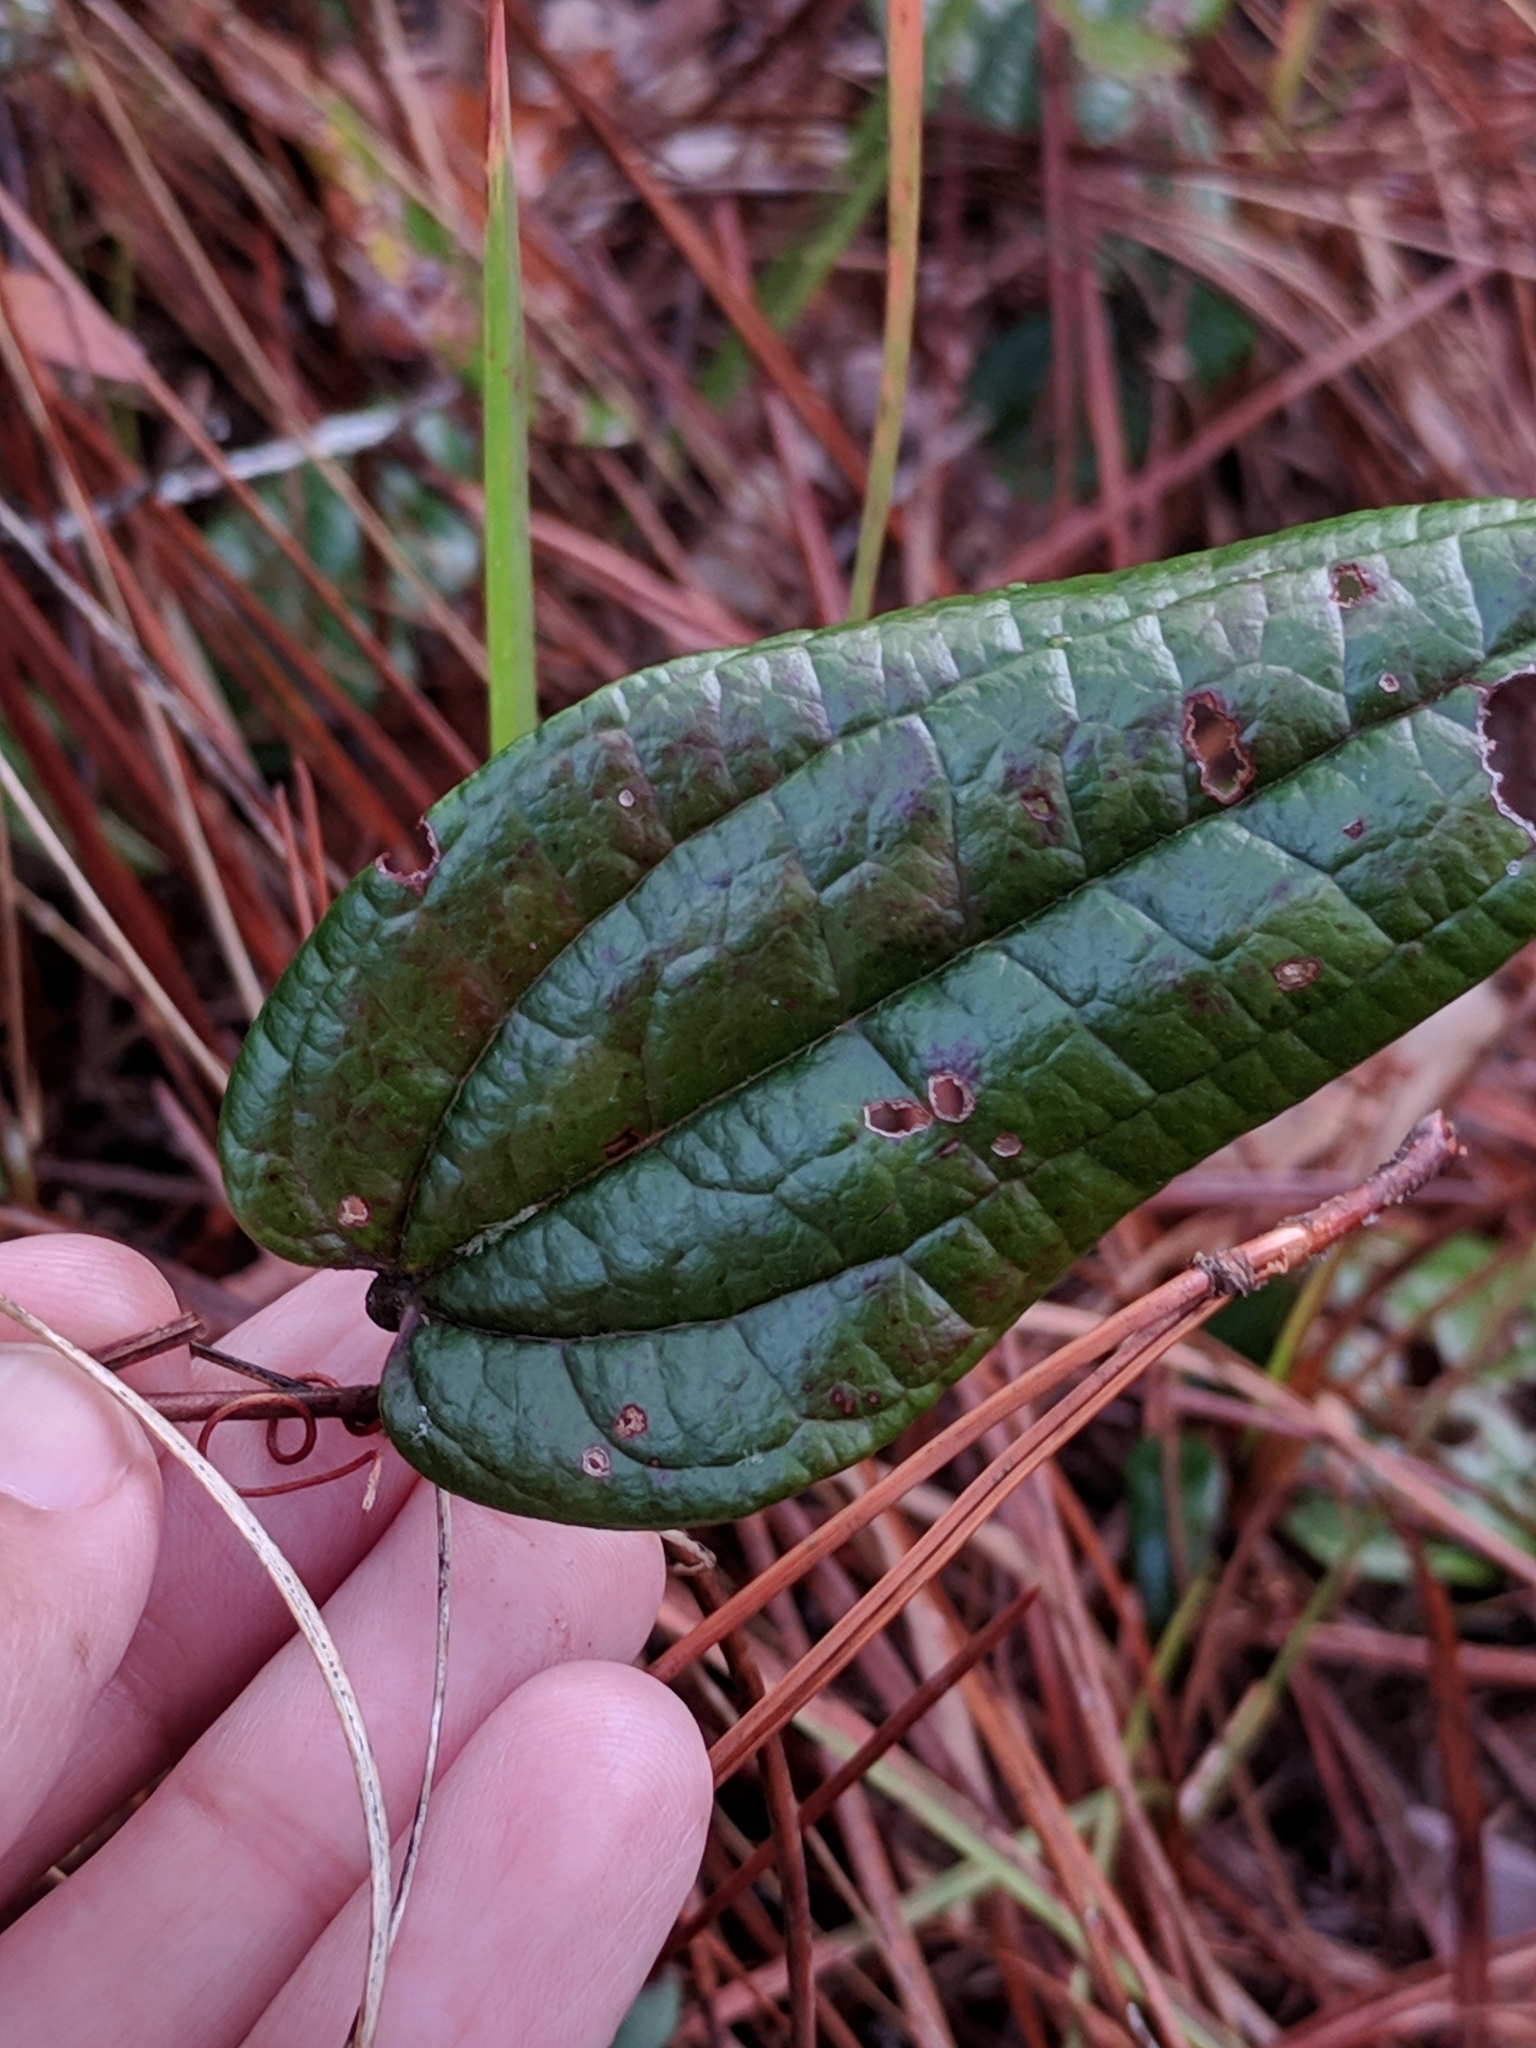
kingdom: Plantae
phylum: Tracheophyta
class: Liliopsida
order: Liliales
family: Smilacaceae
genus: Smilax
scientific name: Smilax pumila
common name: Sarsaparilla-vine
